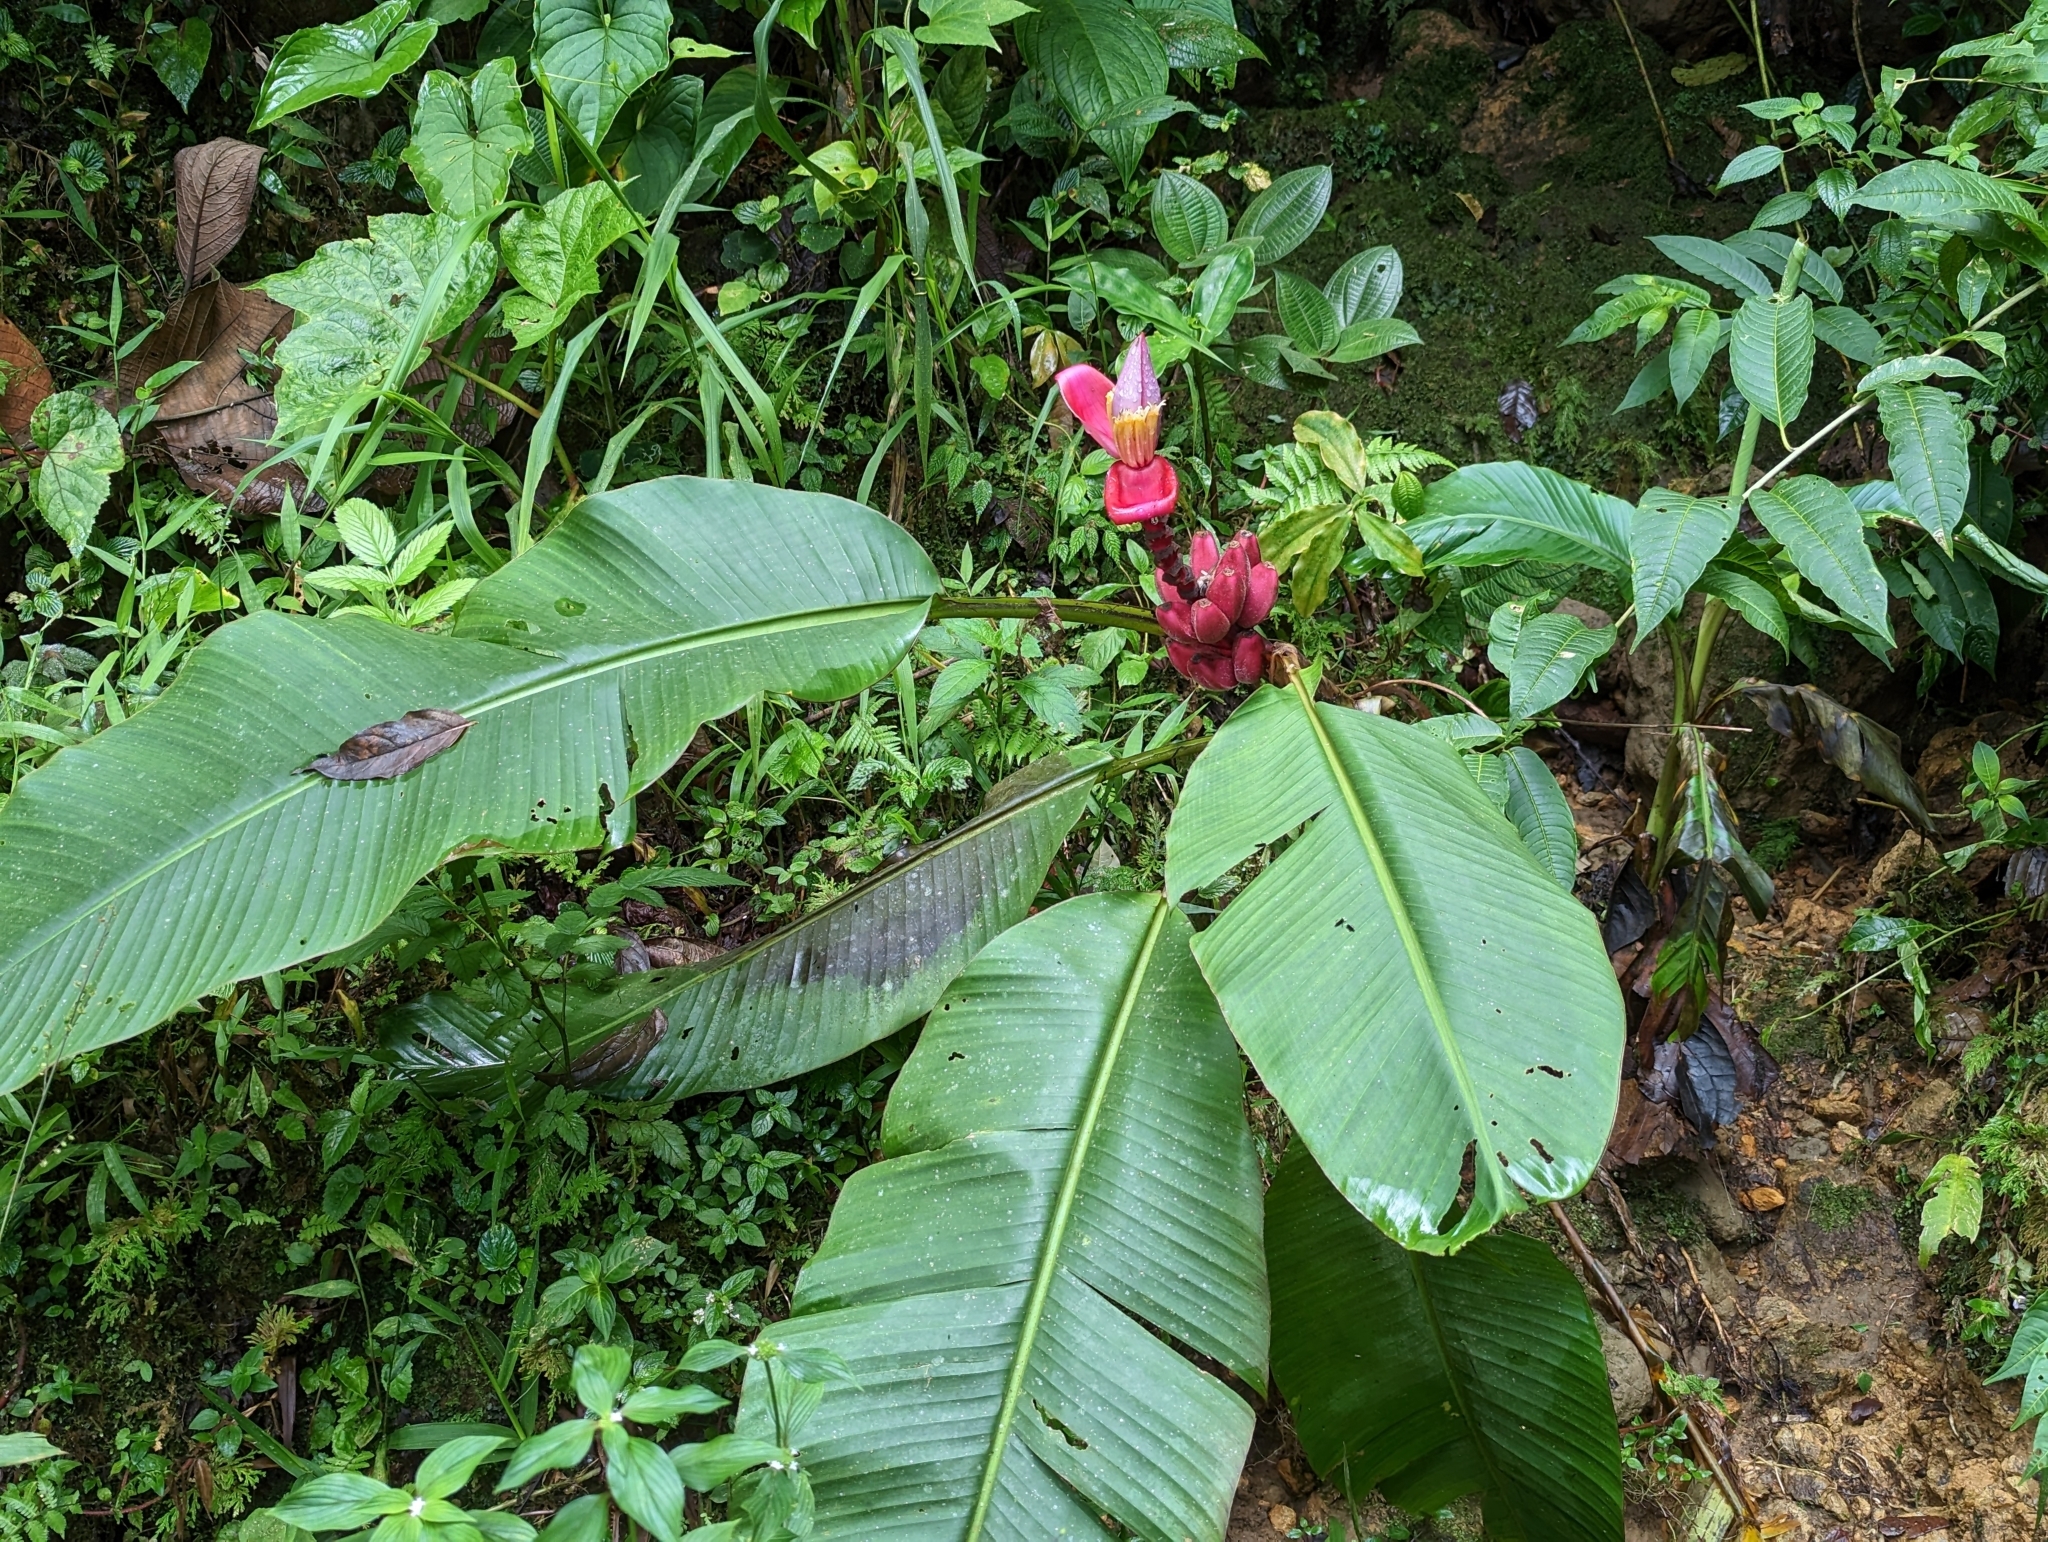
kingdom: Plantae
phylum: Tracheophyta
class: Liliopsida
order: Zingiberales
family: Musaceae
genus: Musa
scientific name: Musa velutina
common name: Pink velvet banana
